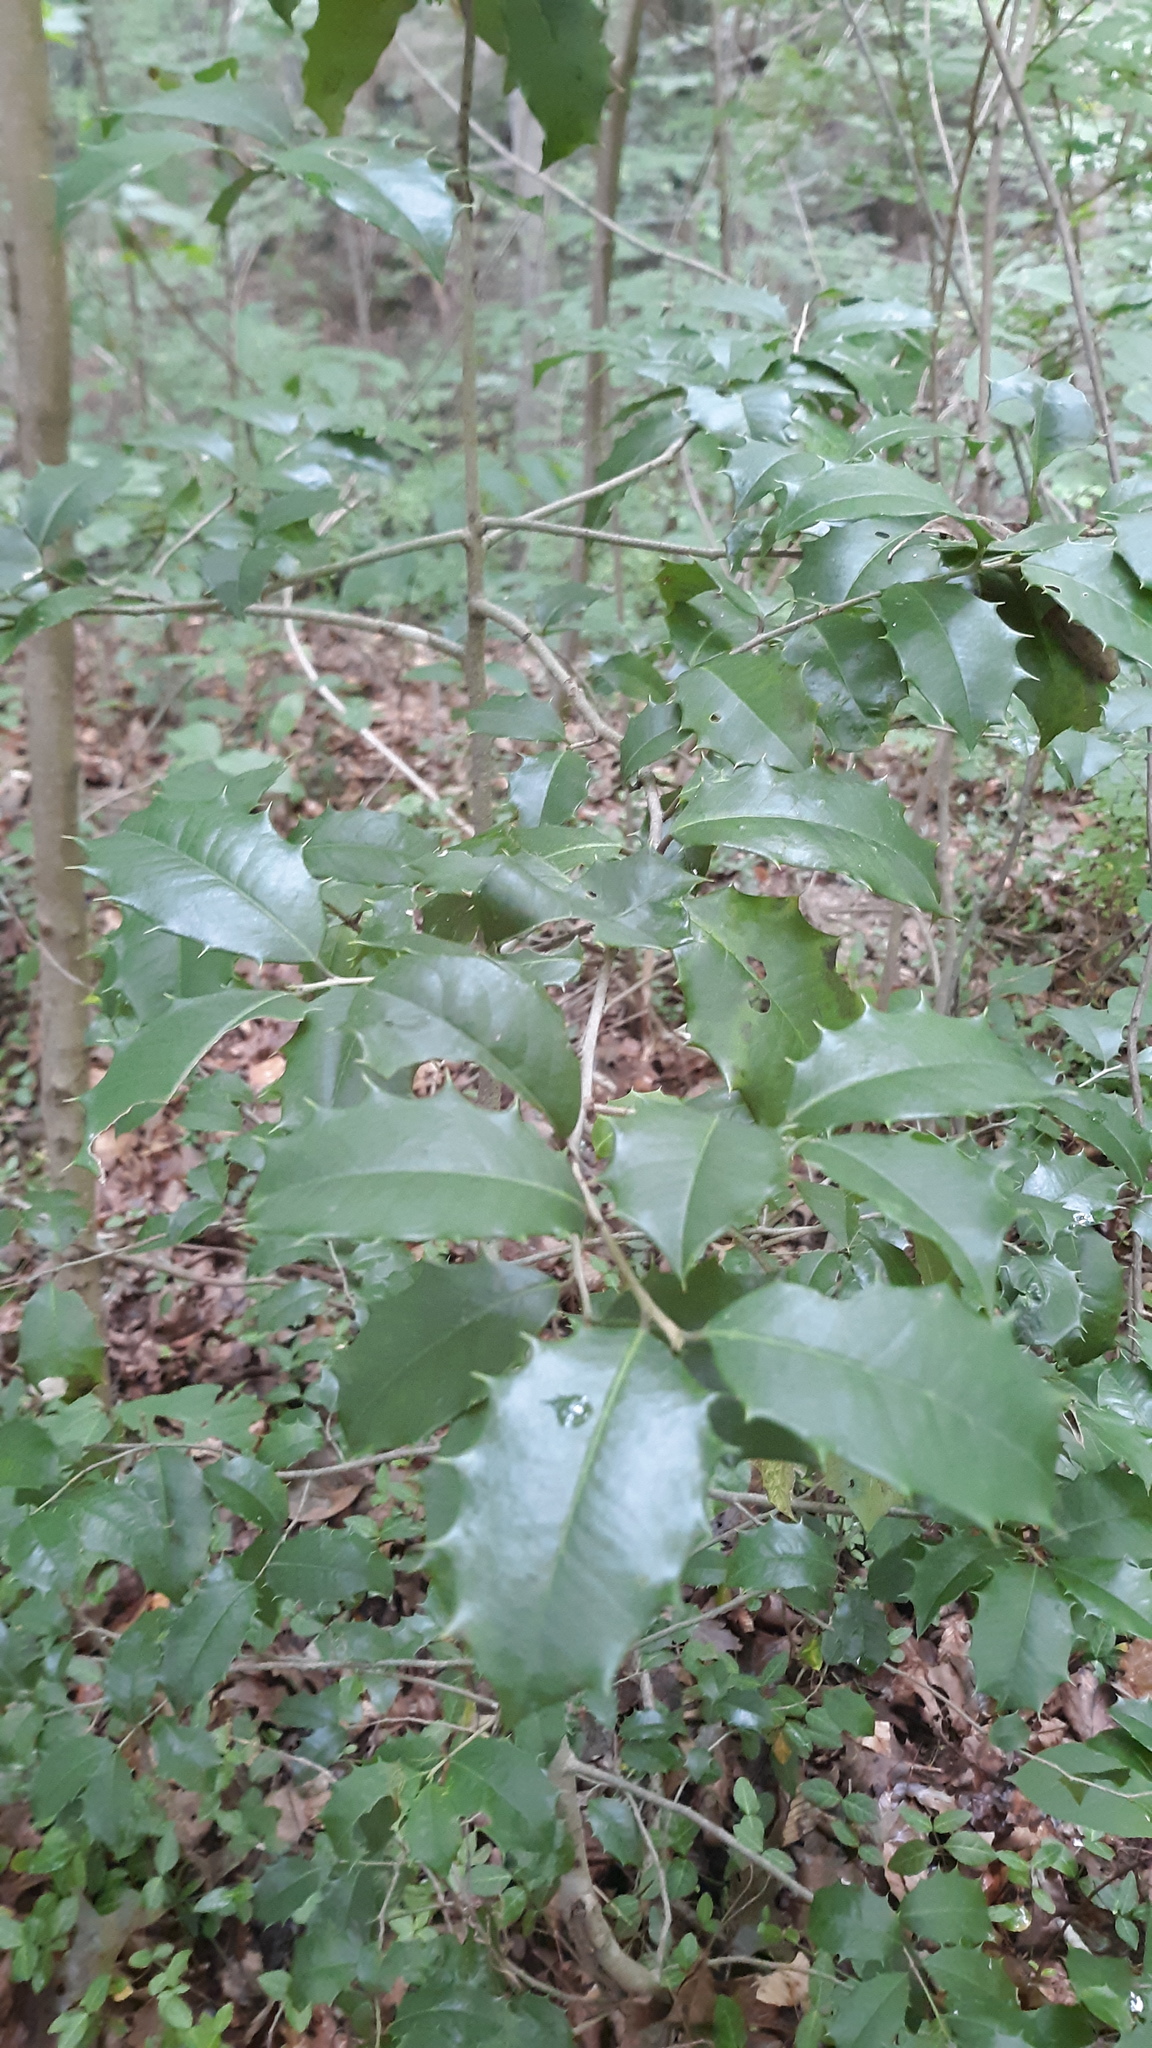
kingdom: Plantae
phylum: Tracheophyta
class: Magnoliopsida
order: Aquifoliales
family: Aquifoliaceae
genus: Ilex
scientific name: Ilex opaca
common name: American holly
